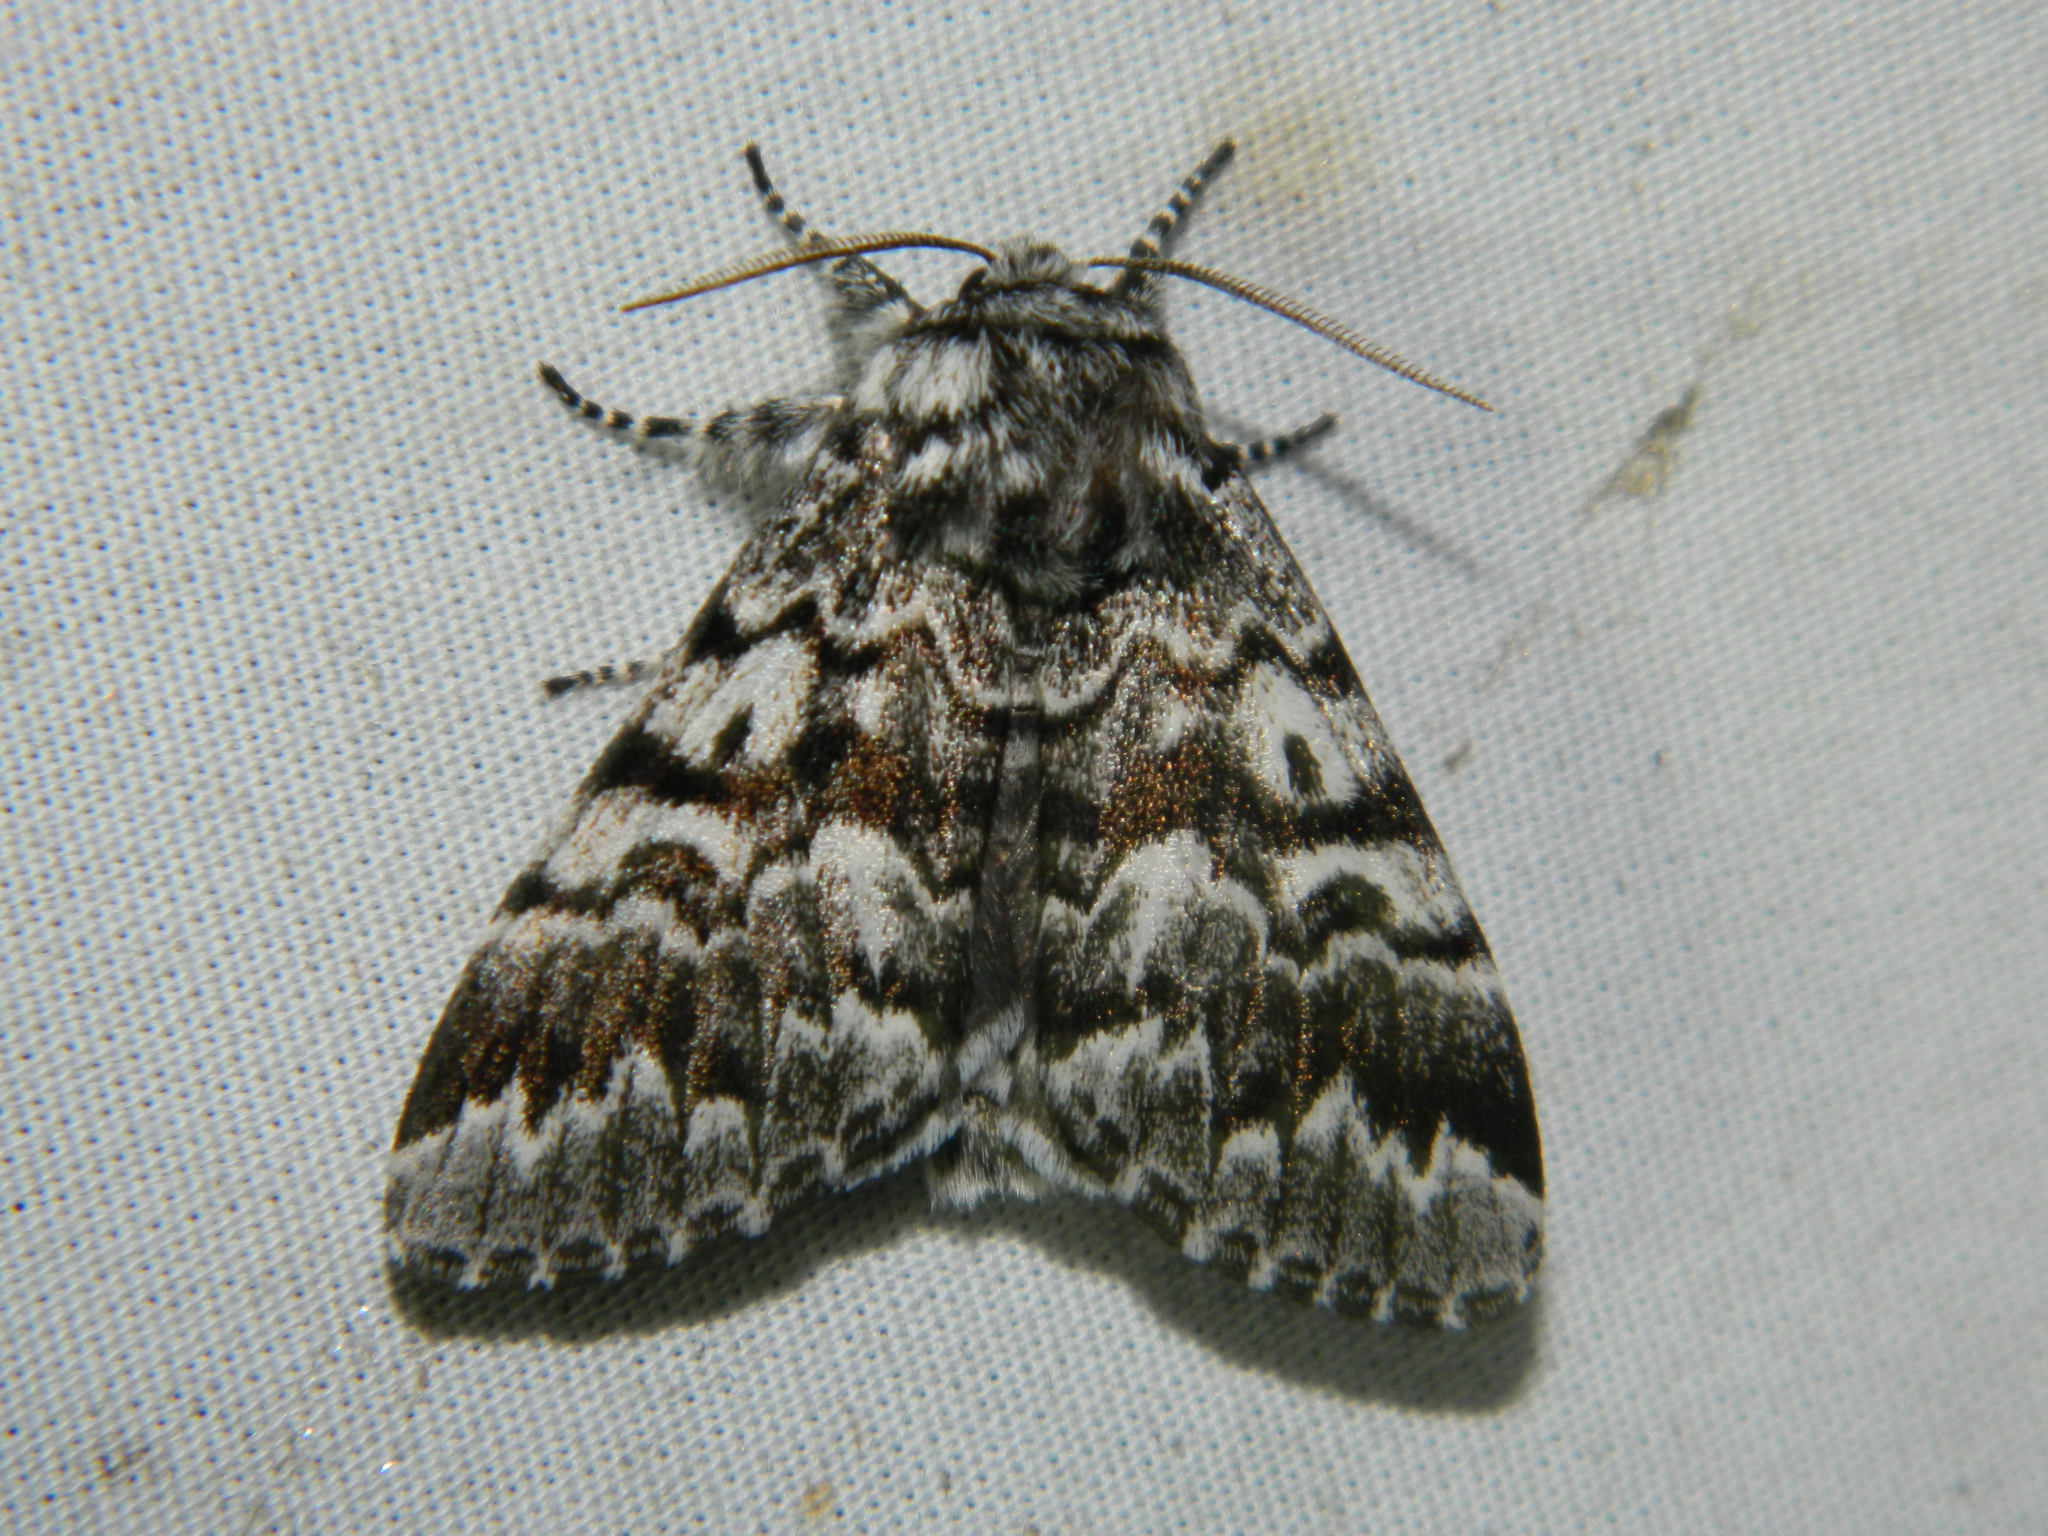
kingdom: Animalia
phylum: Arthropoda
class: Insecta
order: Lepidoptera
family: Noctuidae
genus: Panthea
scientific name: Panthea acronyctoides
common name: Black zigzag moth
